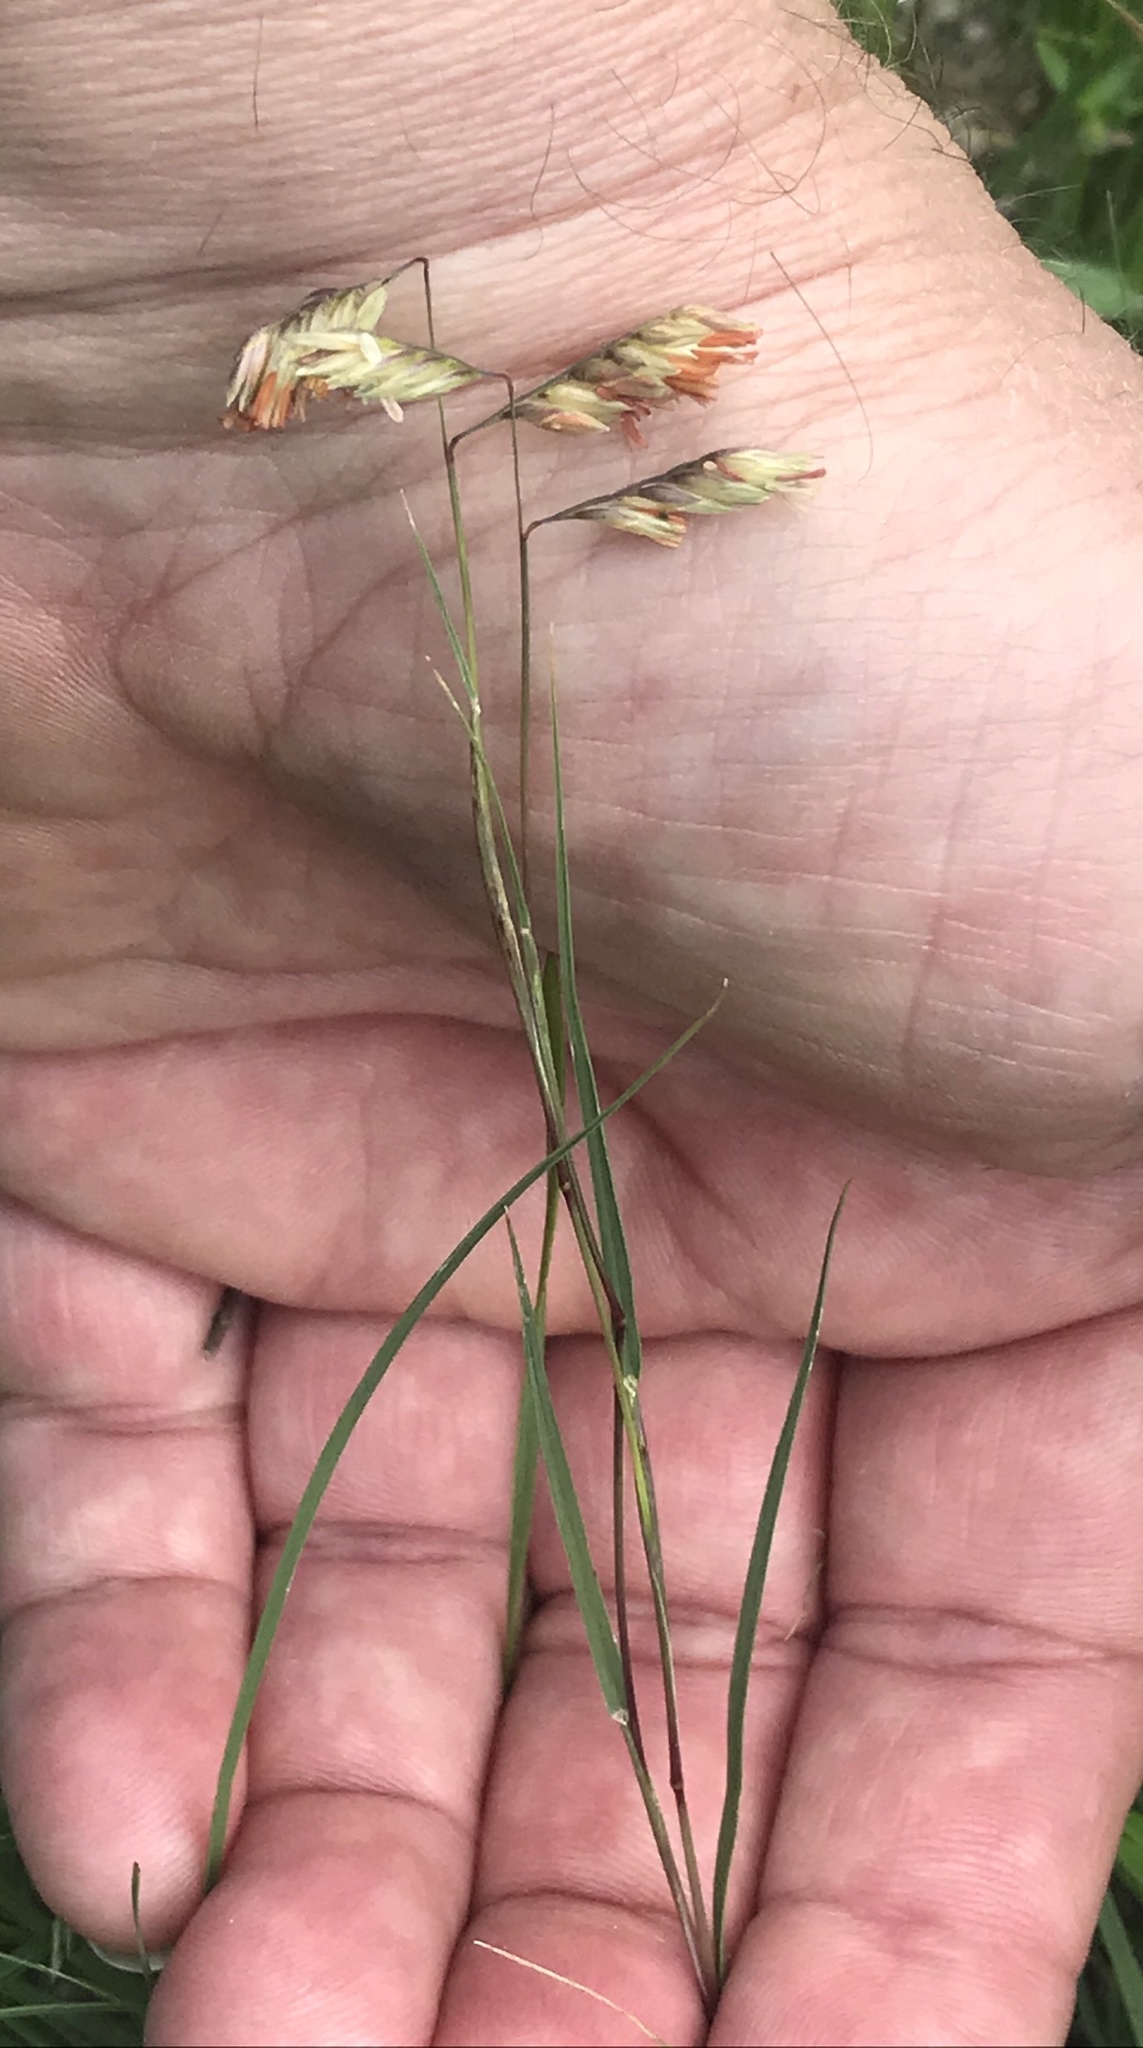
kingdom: Plantae
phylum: Tracheophyta
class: Liliopsida
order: Poales
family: Poaceae
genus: Bouteloua
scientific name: Bouteloua dactyloides
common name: Buffalo grass
